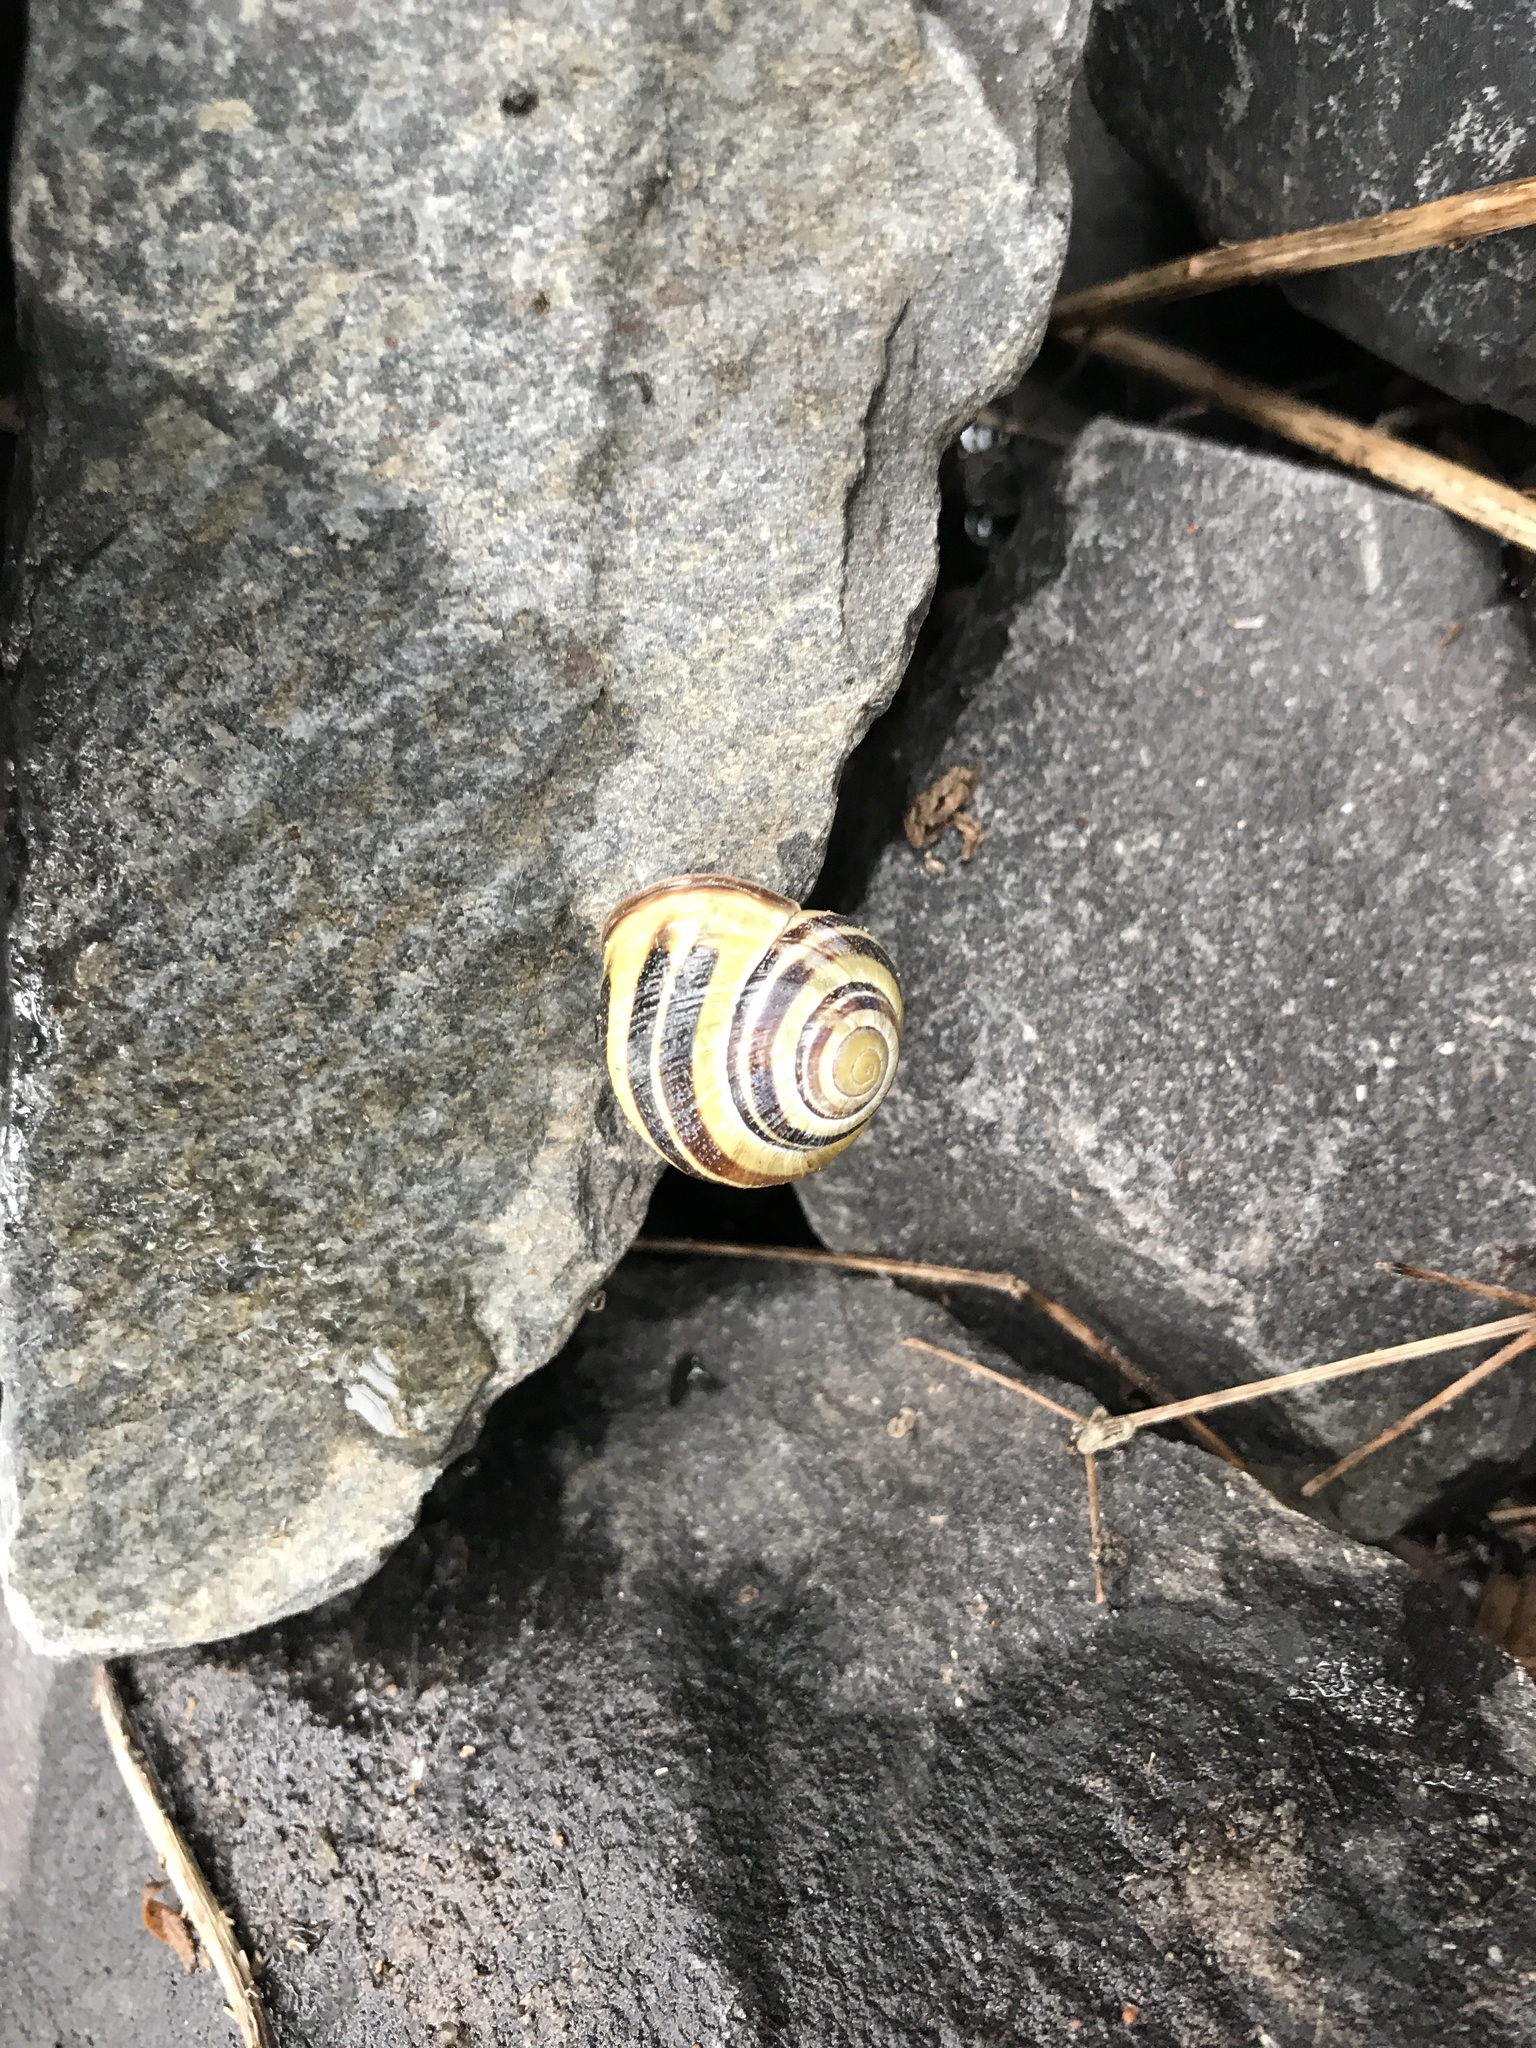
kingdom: Animalia
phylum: Mollusca
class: Gastropoda
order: Stylommatophora
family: Helicidae
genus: Cepaea
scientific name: Cepaea nemoralis
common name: Grovesnail
